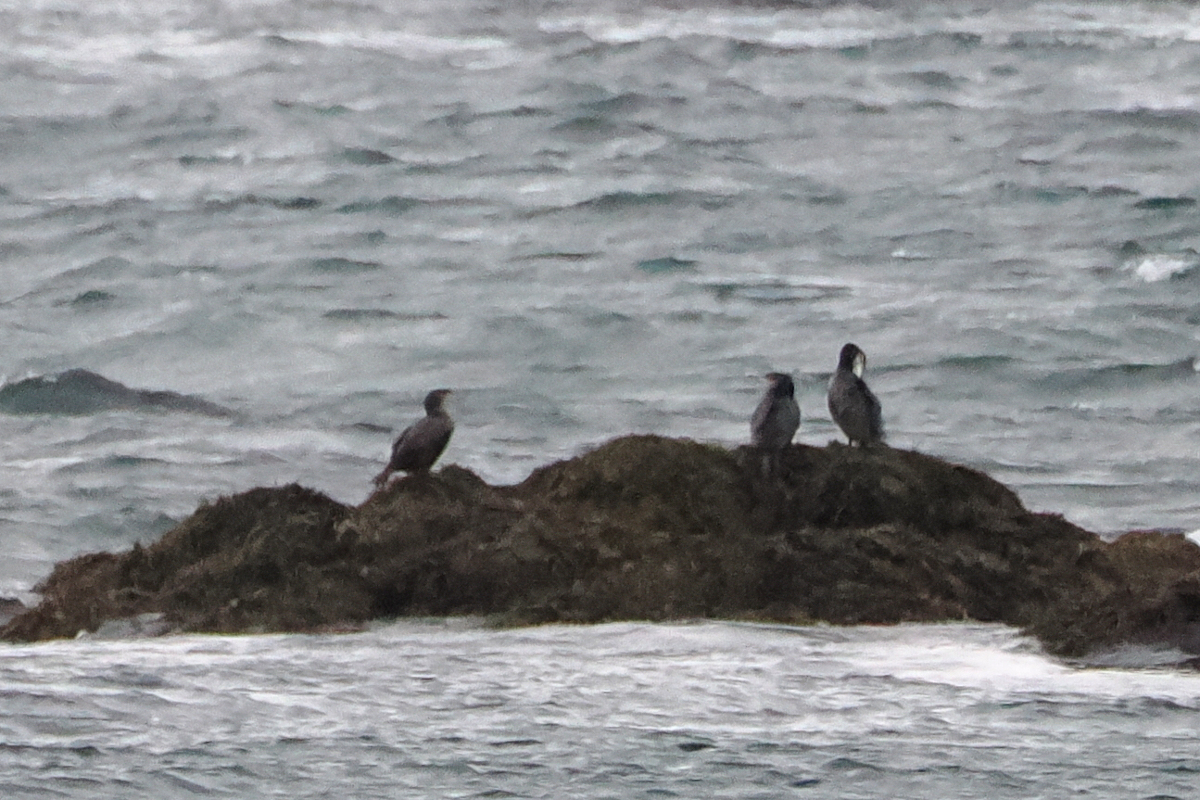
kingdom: Animalia
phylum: Chordata
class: Aves
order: Suliformes
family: Phalacrocoracidae
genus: Phalacrocorax
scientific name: Phalacrocorax carbo
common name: Great cormorant
